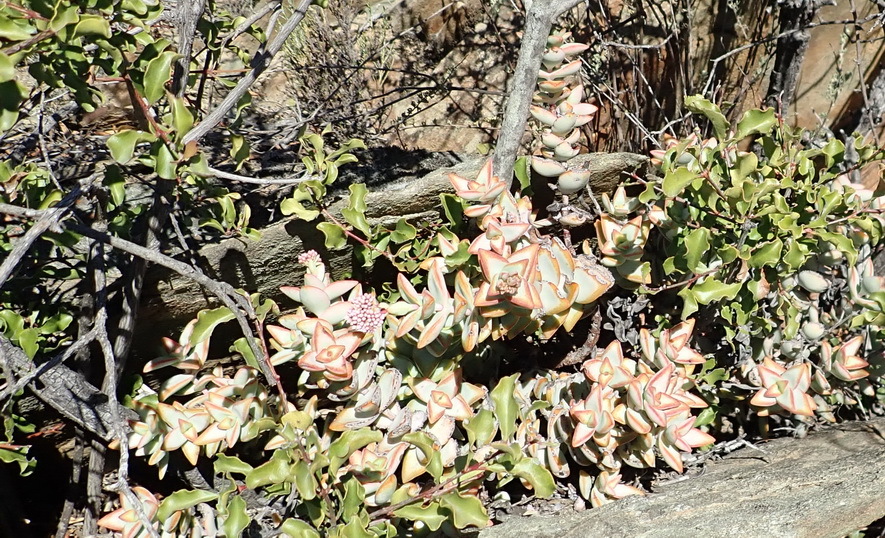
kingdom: Plantae
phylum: Tracheophyta
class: Magnoliopsida
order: Saxifragales
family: Crassulaceae
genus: Crassula
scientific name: Crassula rupestris
